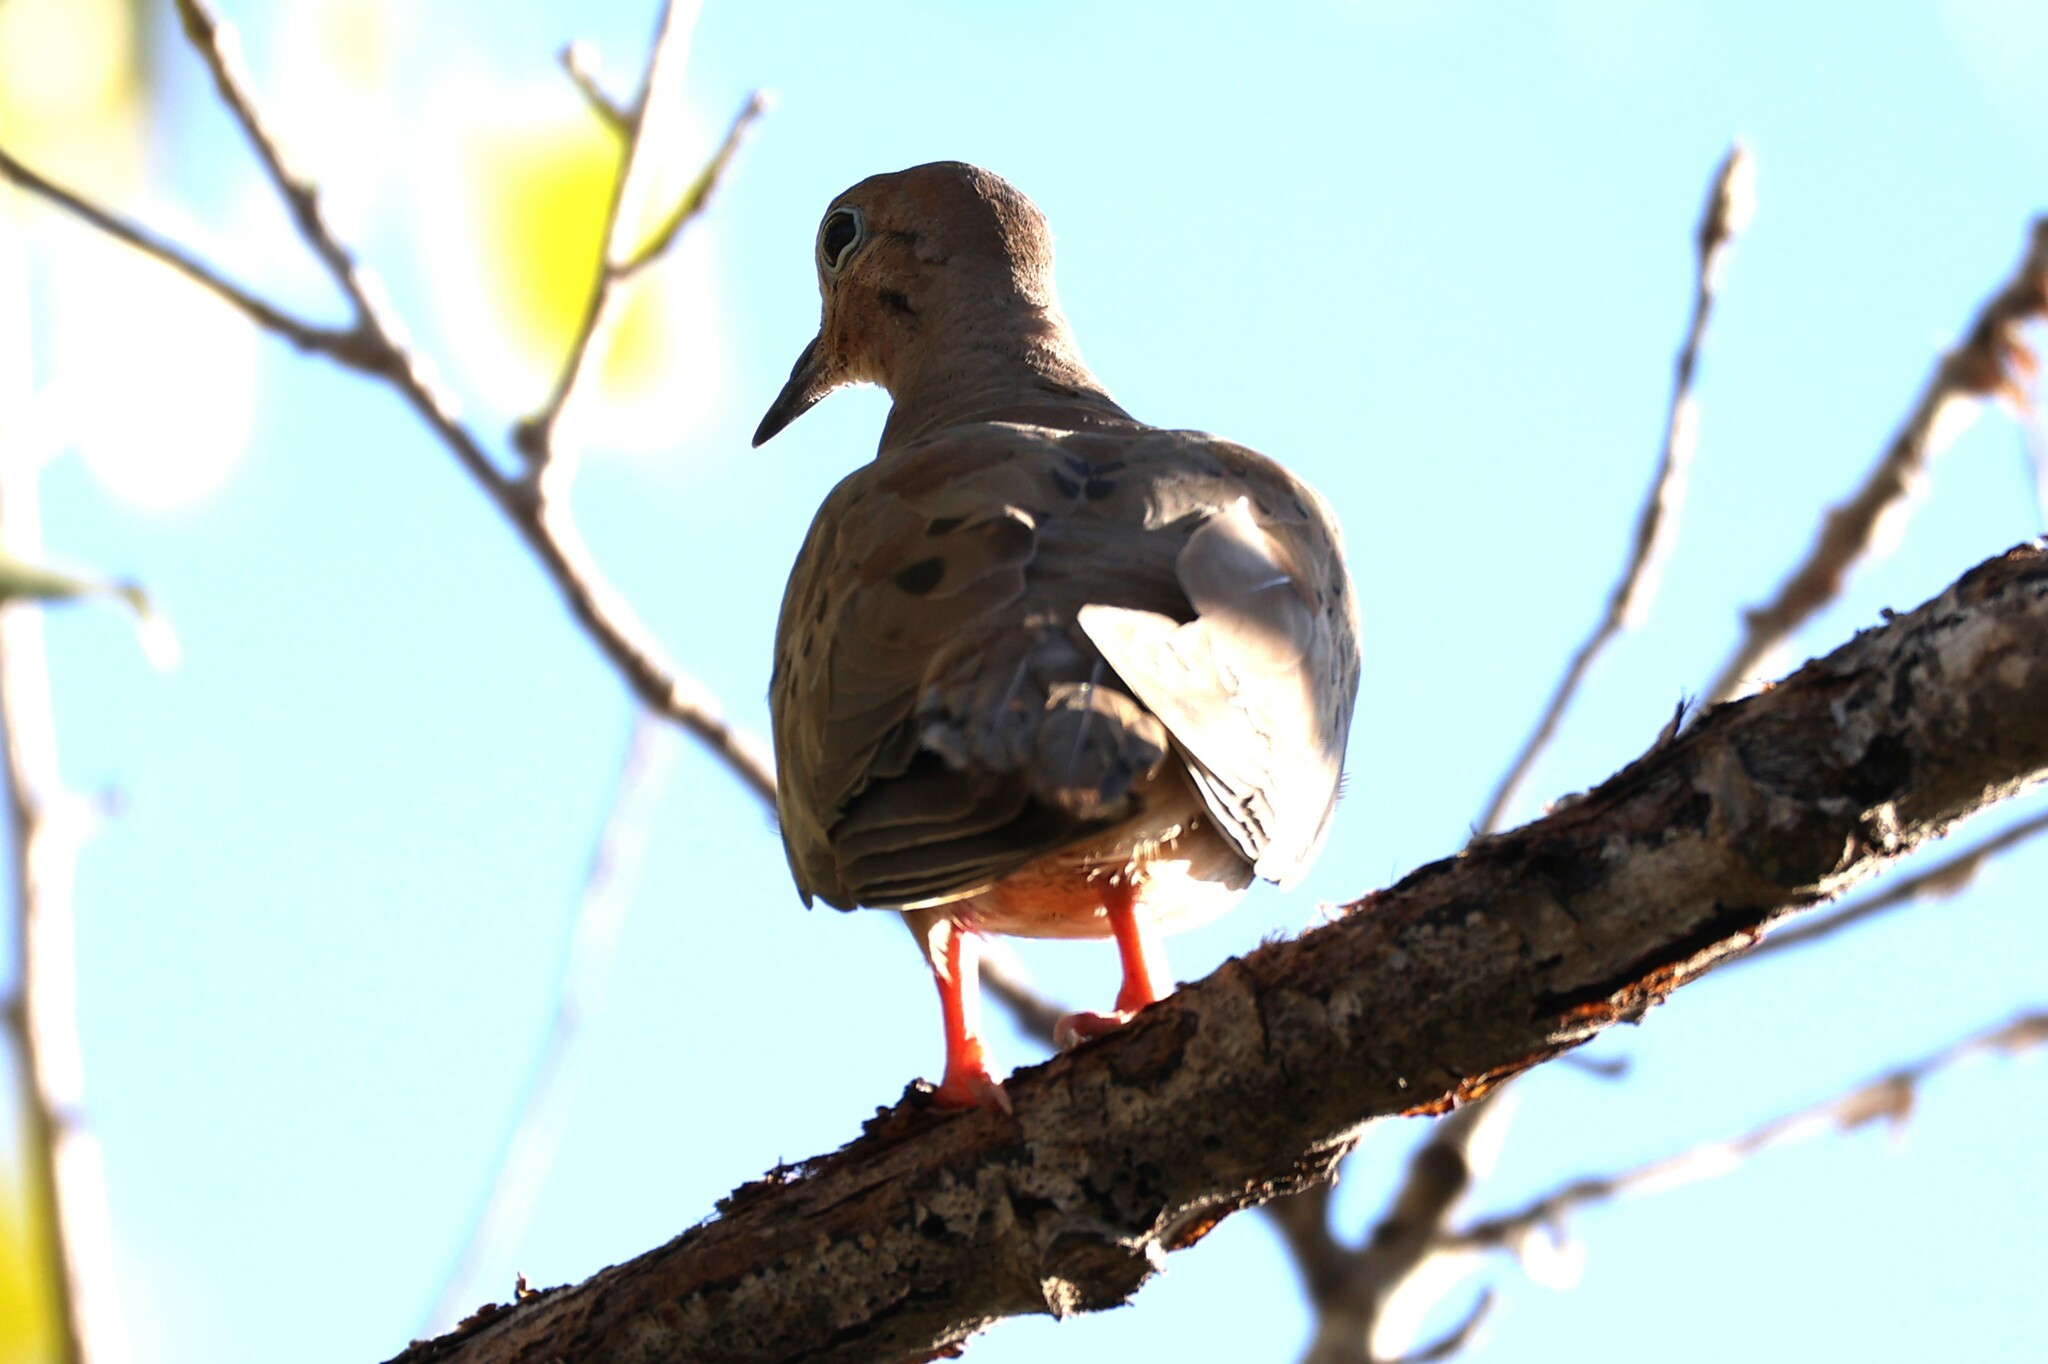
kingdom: Animalia
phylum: Chordata
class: Aves
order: Columbiformes
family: Columbidae
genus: Zenaida
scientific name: Zenaida macroura
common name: Mourning dove
